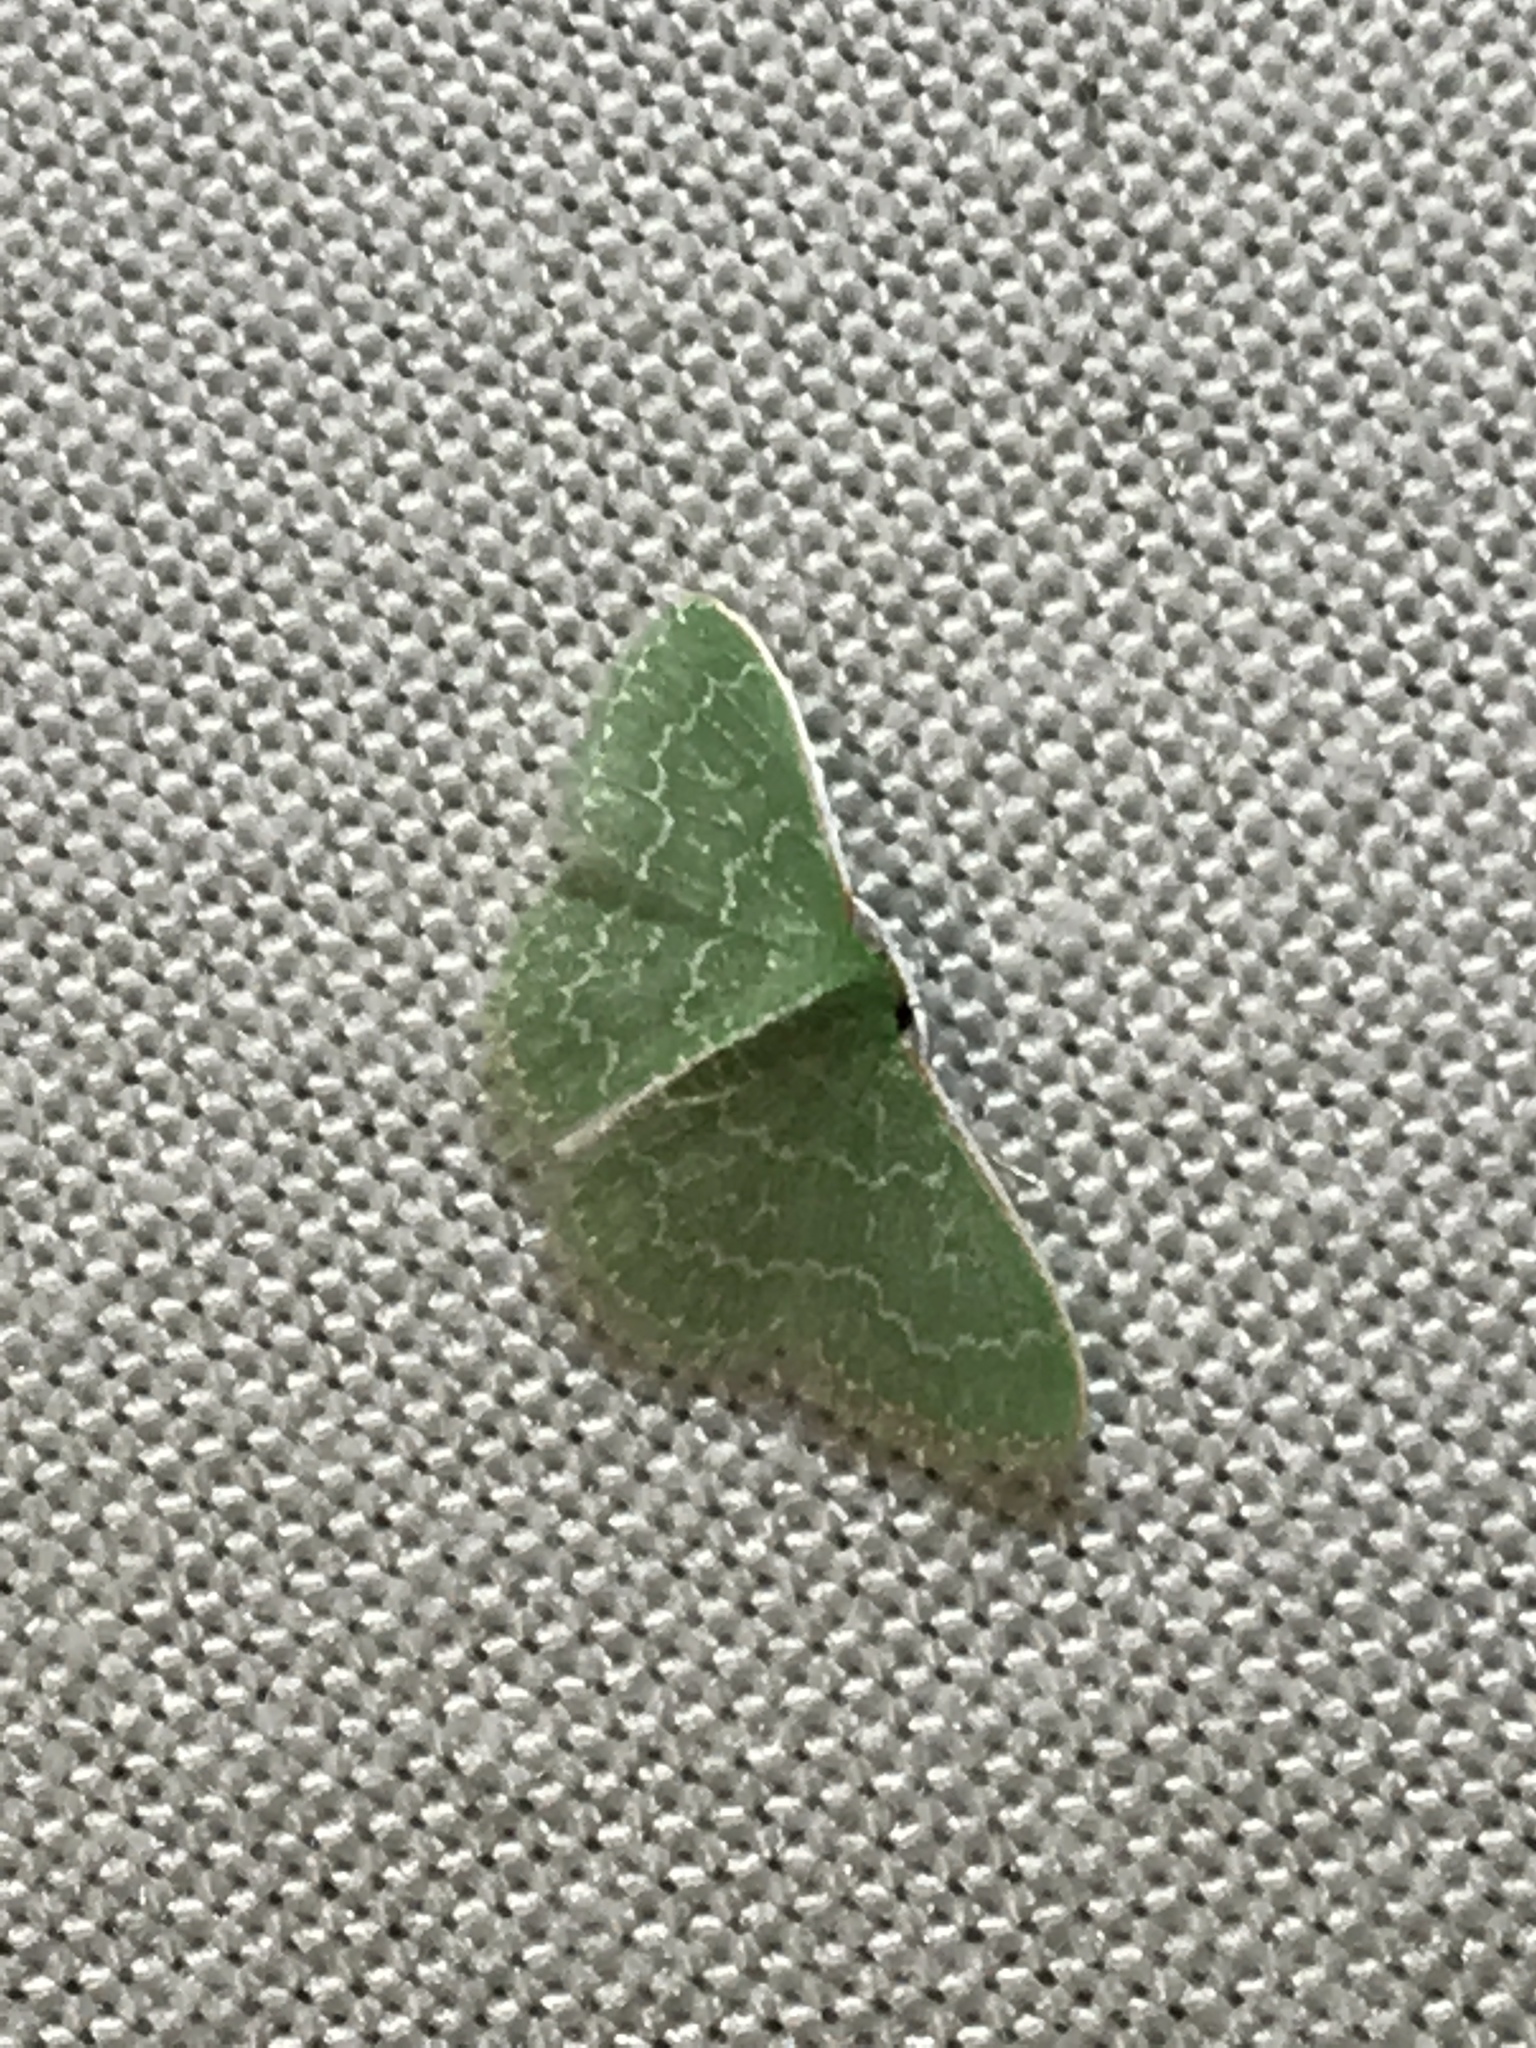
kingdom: Animalia
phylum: Arthropoda
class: Insecta
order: Lepidoptera
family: Geometridae
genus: Synchlora
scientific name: Synchlora frondaria
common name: Southern emerald
